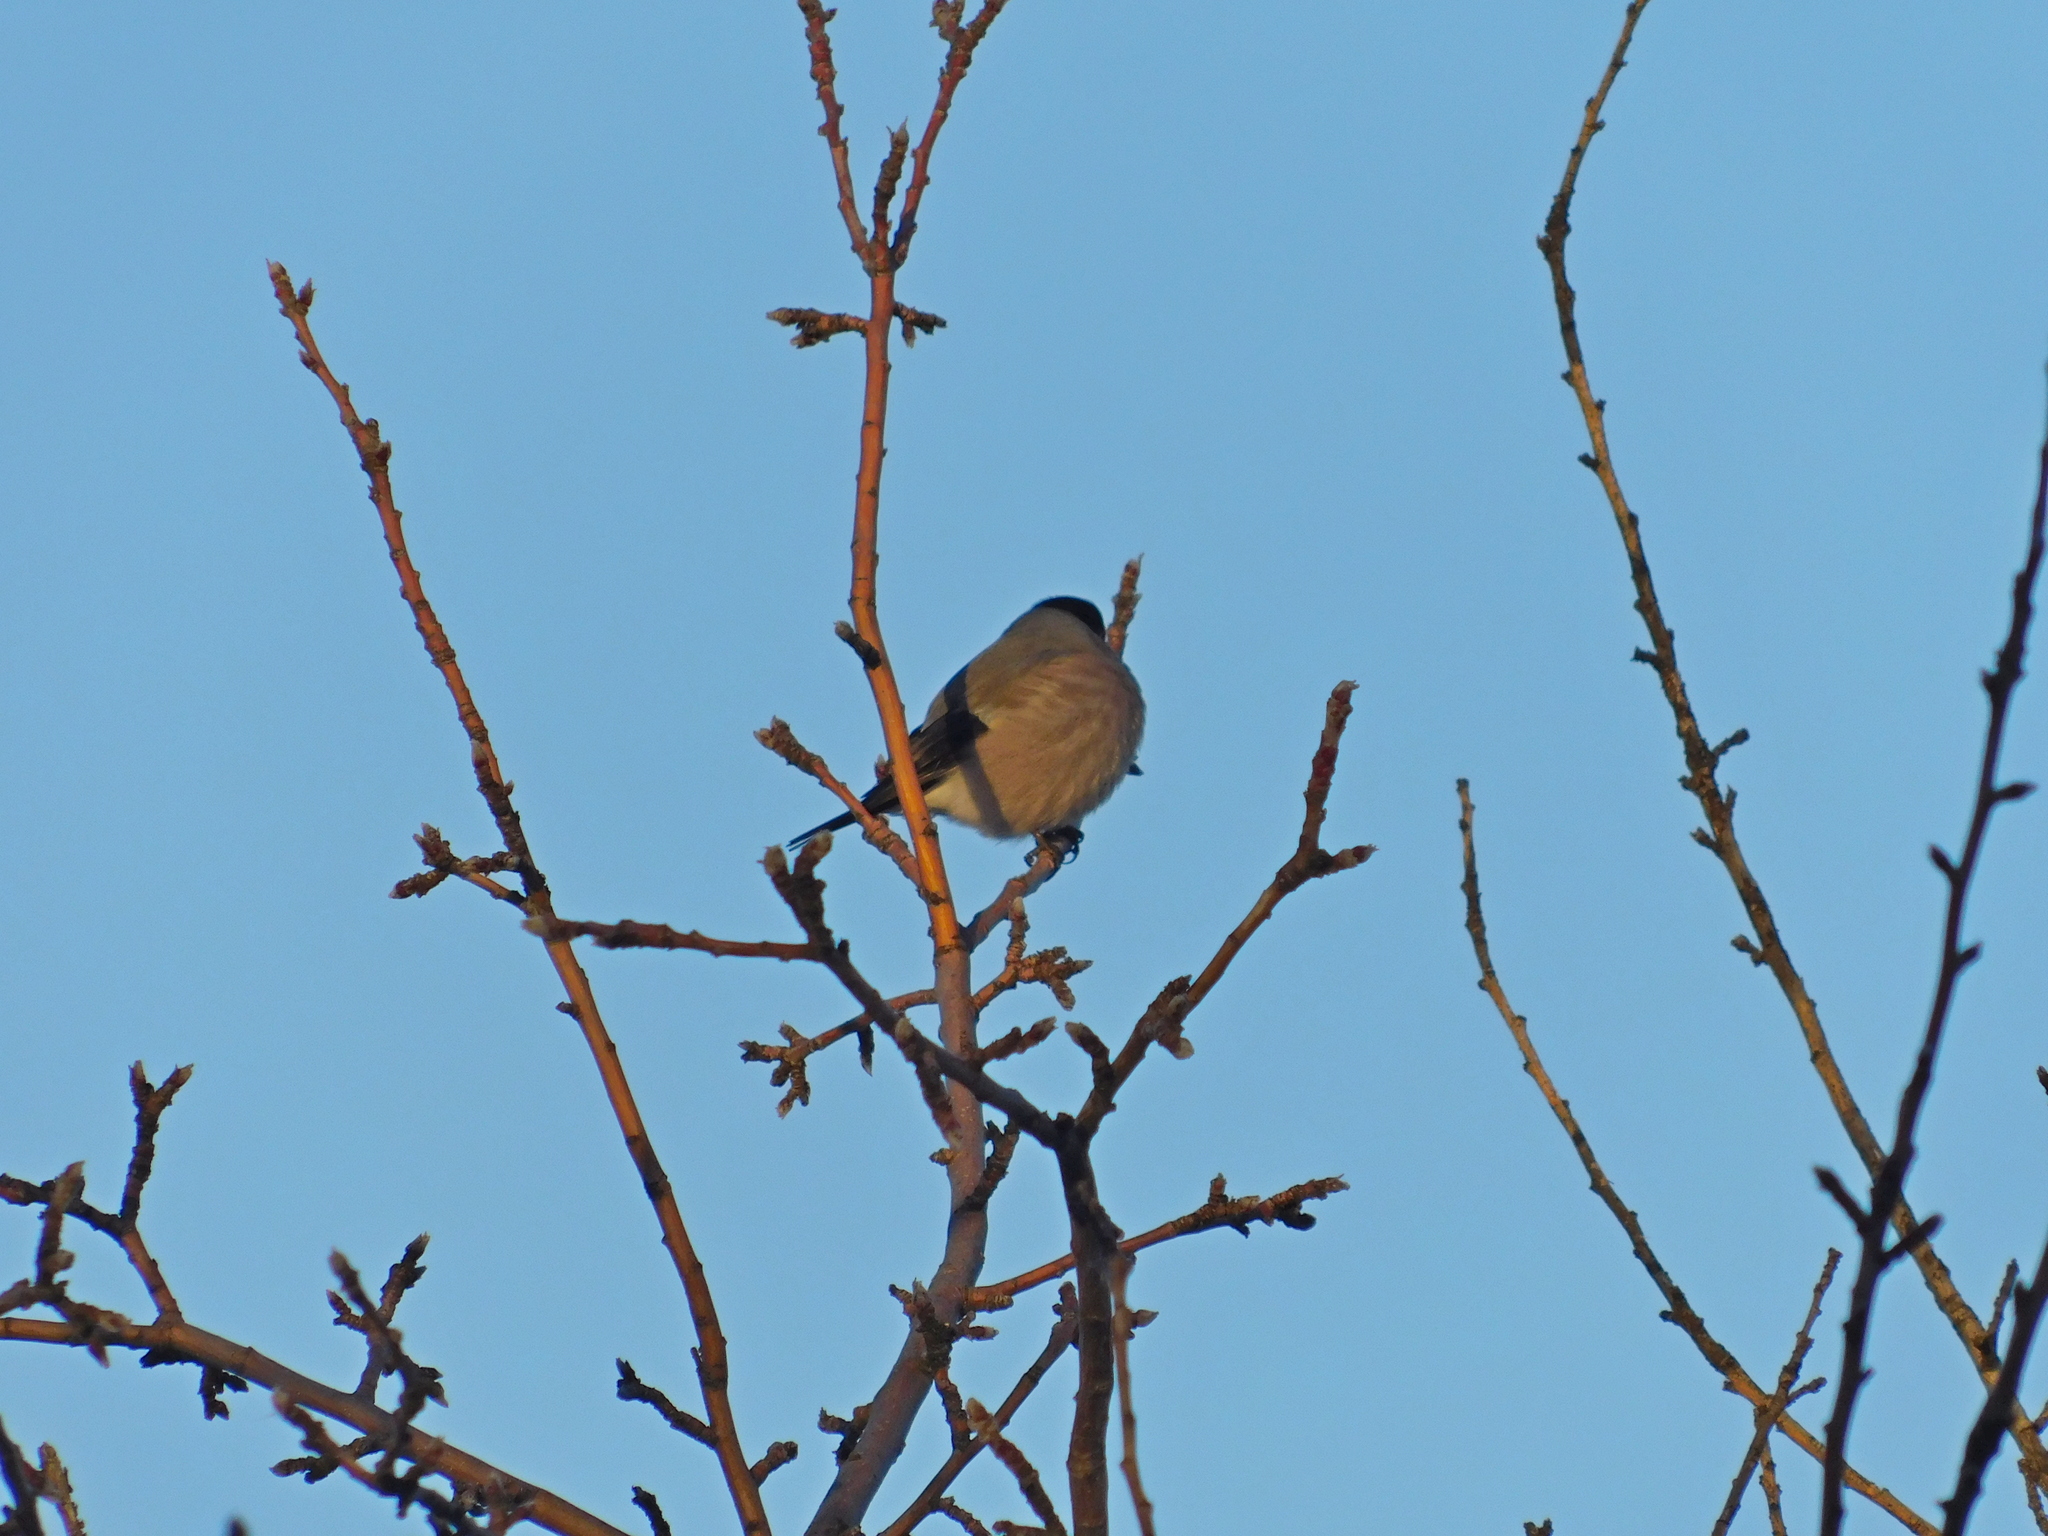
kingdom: Animalia
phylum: Chordata
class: Aves
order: Passeriformes
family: Fringillidae
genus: Pyrrhula
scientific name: Pyrrhula pyrrhula
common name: Eurasian bullfinch
